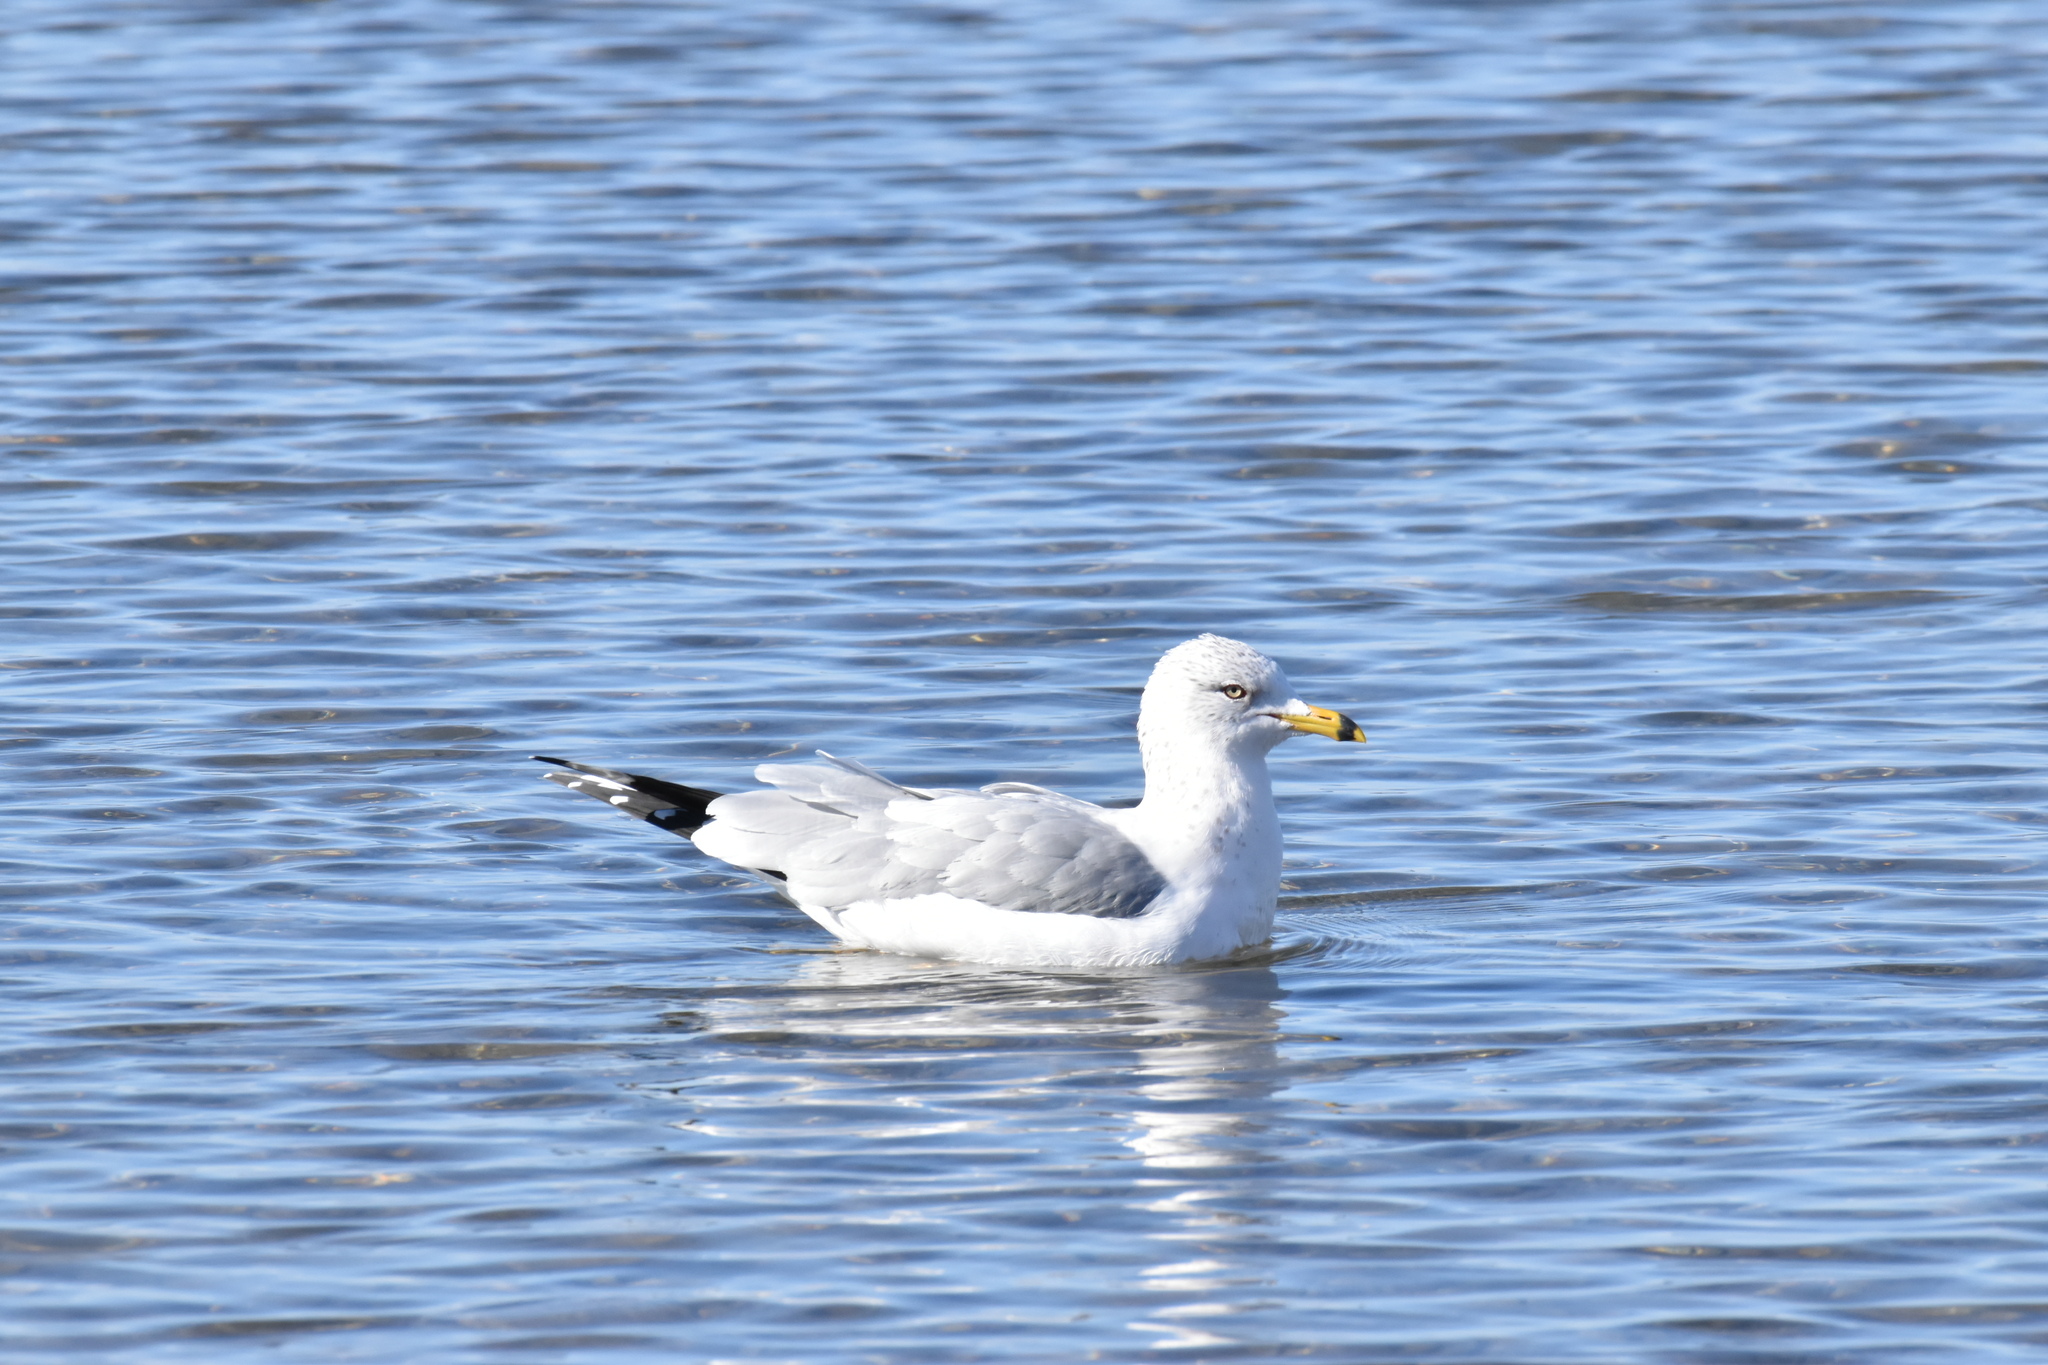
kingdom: Animalia
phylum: Chordata
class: Aves
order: Charadriiformes
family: Laridae
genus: Larus
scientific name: Larus delawarensis
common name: Ring-billed gull
